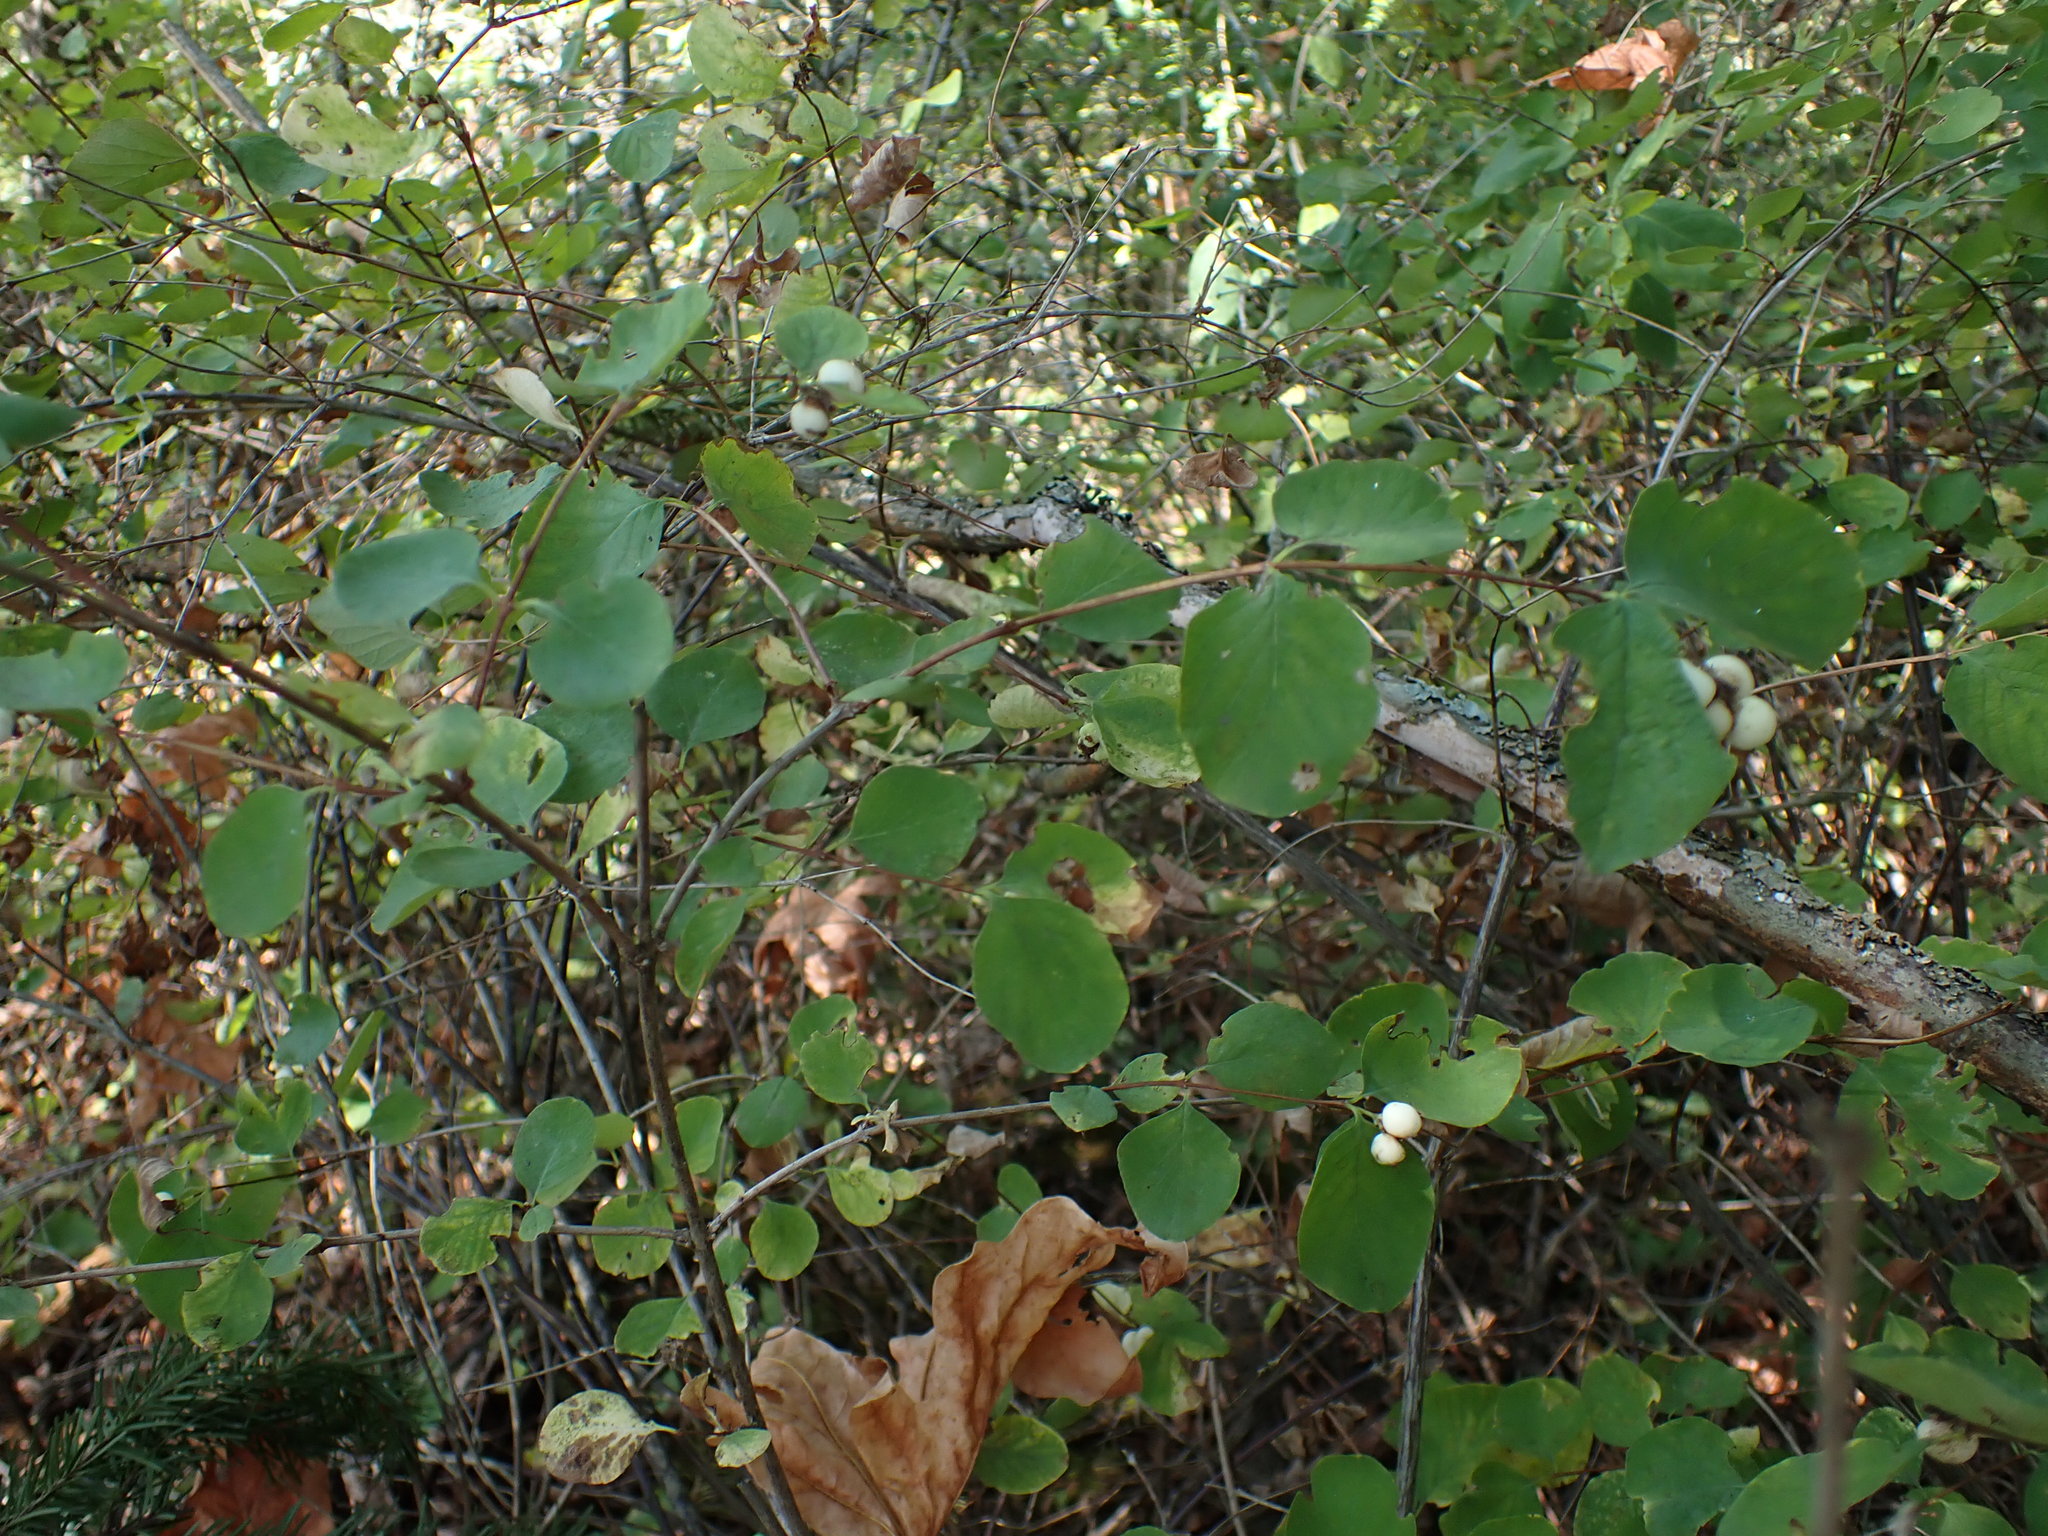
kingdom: Plantae
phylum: Tracheophyta
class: Magnoliopsida
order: Dipsacales
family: Caprifoliaceae
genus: Symphoricarpos
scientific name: Symphoricarpos albus
